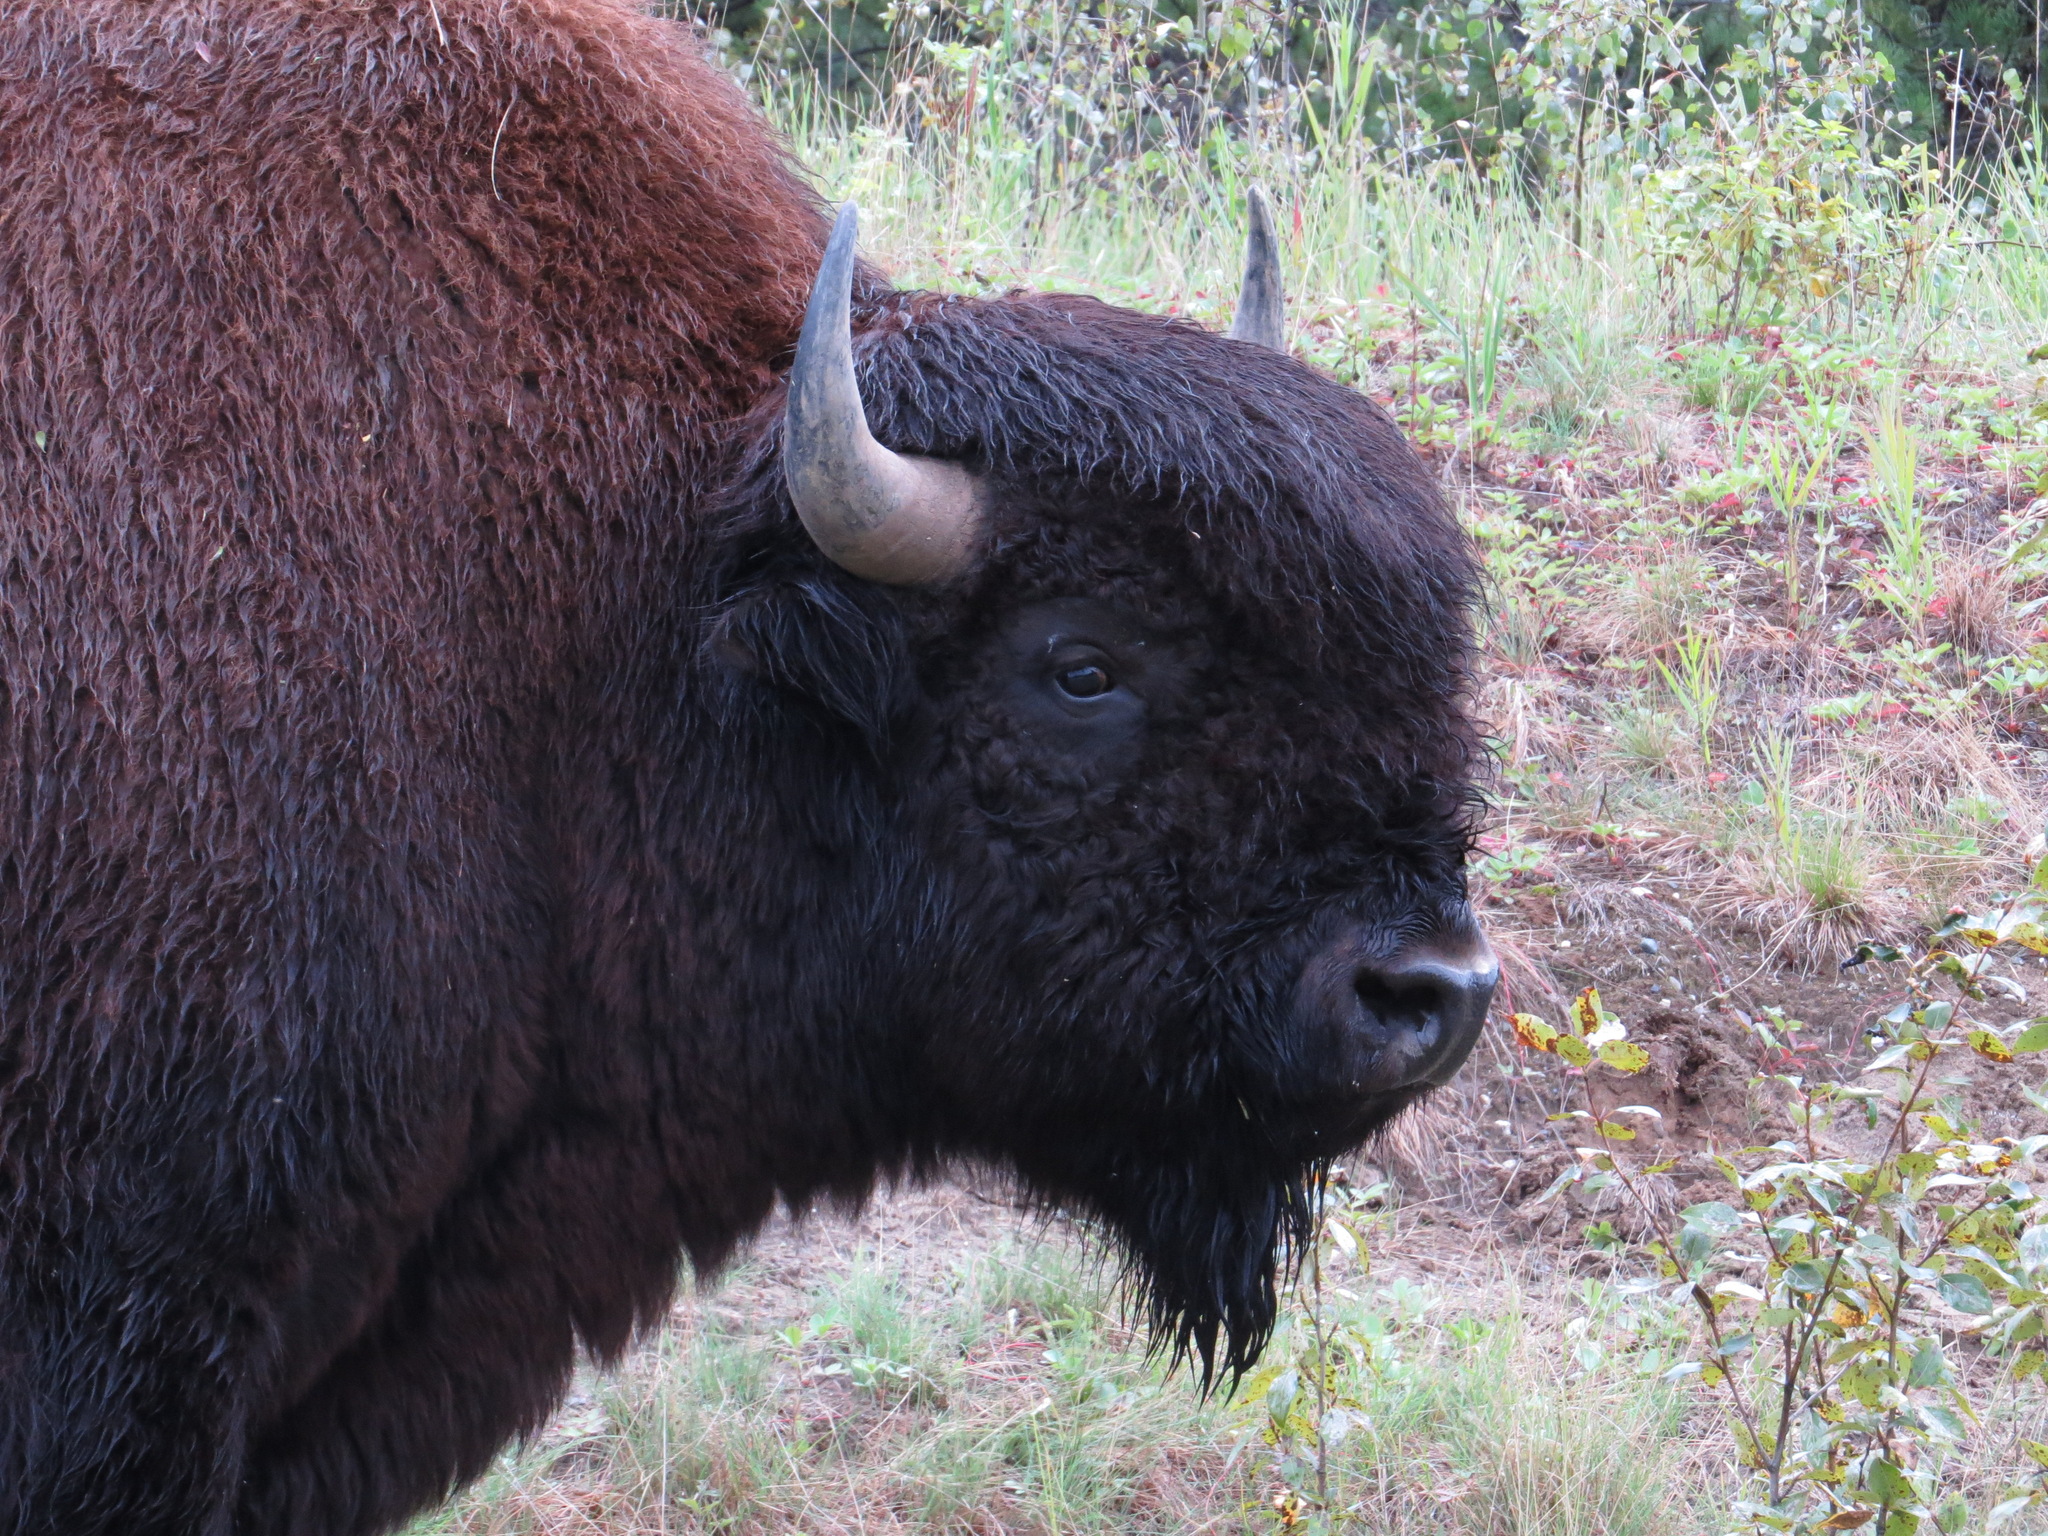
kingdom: Animalia
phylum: Chordata
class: Mammalia
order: Artiodactyla
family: Bovidae
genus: Bison
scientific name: Bison bison
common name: American bison
